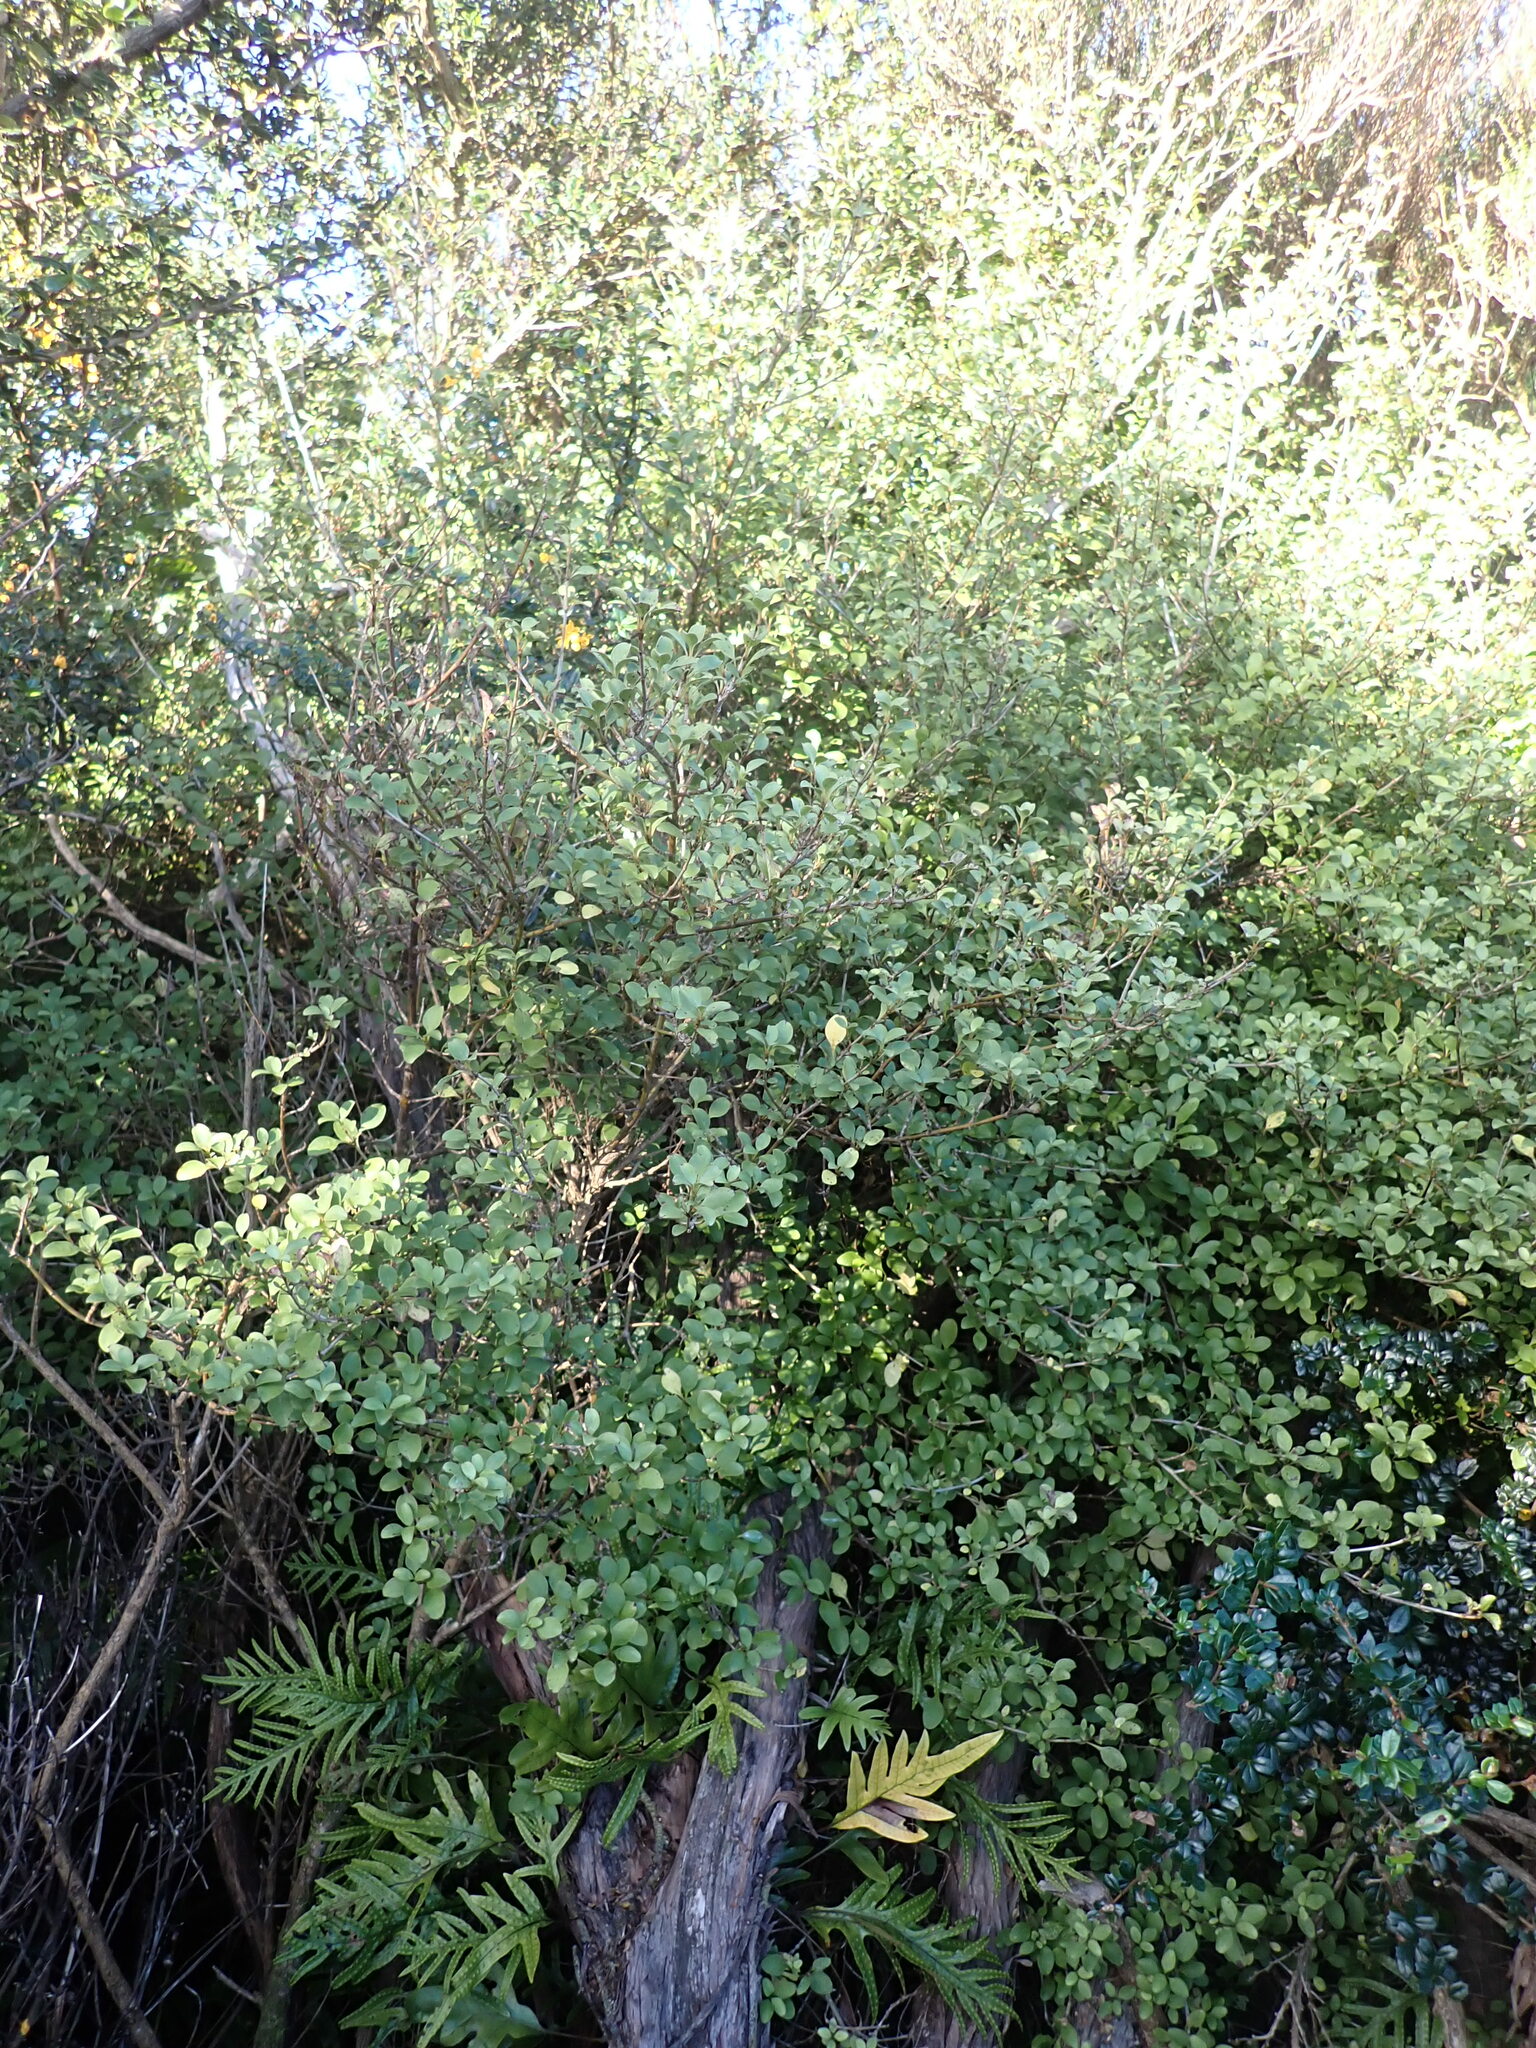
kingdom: Plantae
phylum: Tracheophyta
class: Magnoliopsida
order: Gentianales
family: Rubiaceae
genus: Coprosma
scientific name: Coprosma foetidissima
